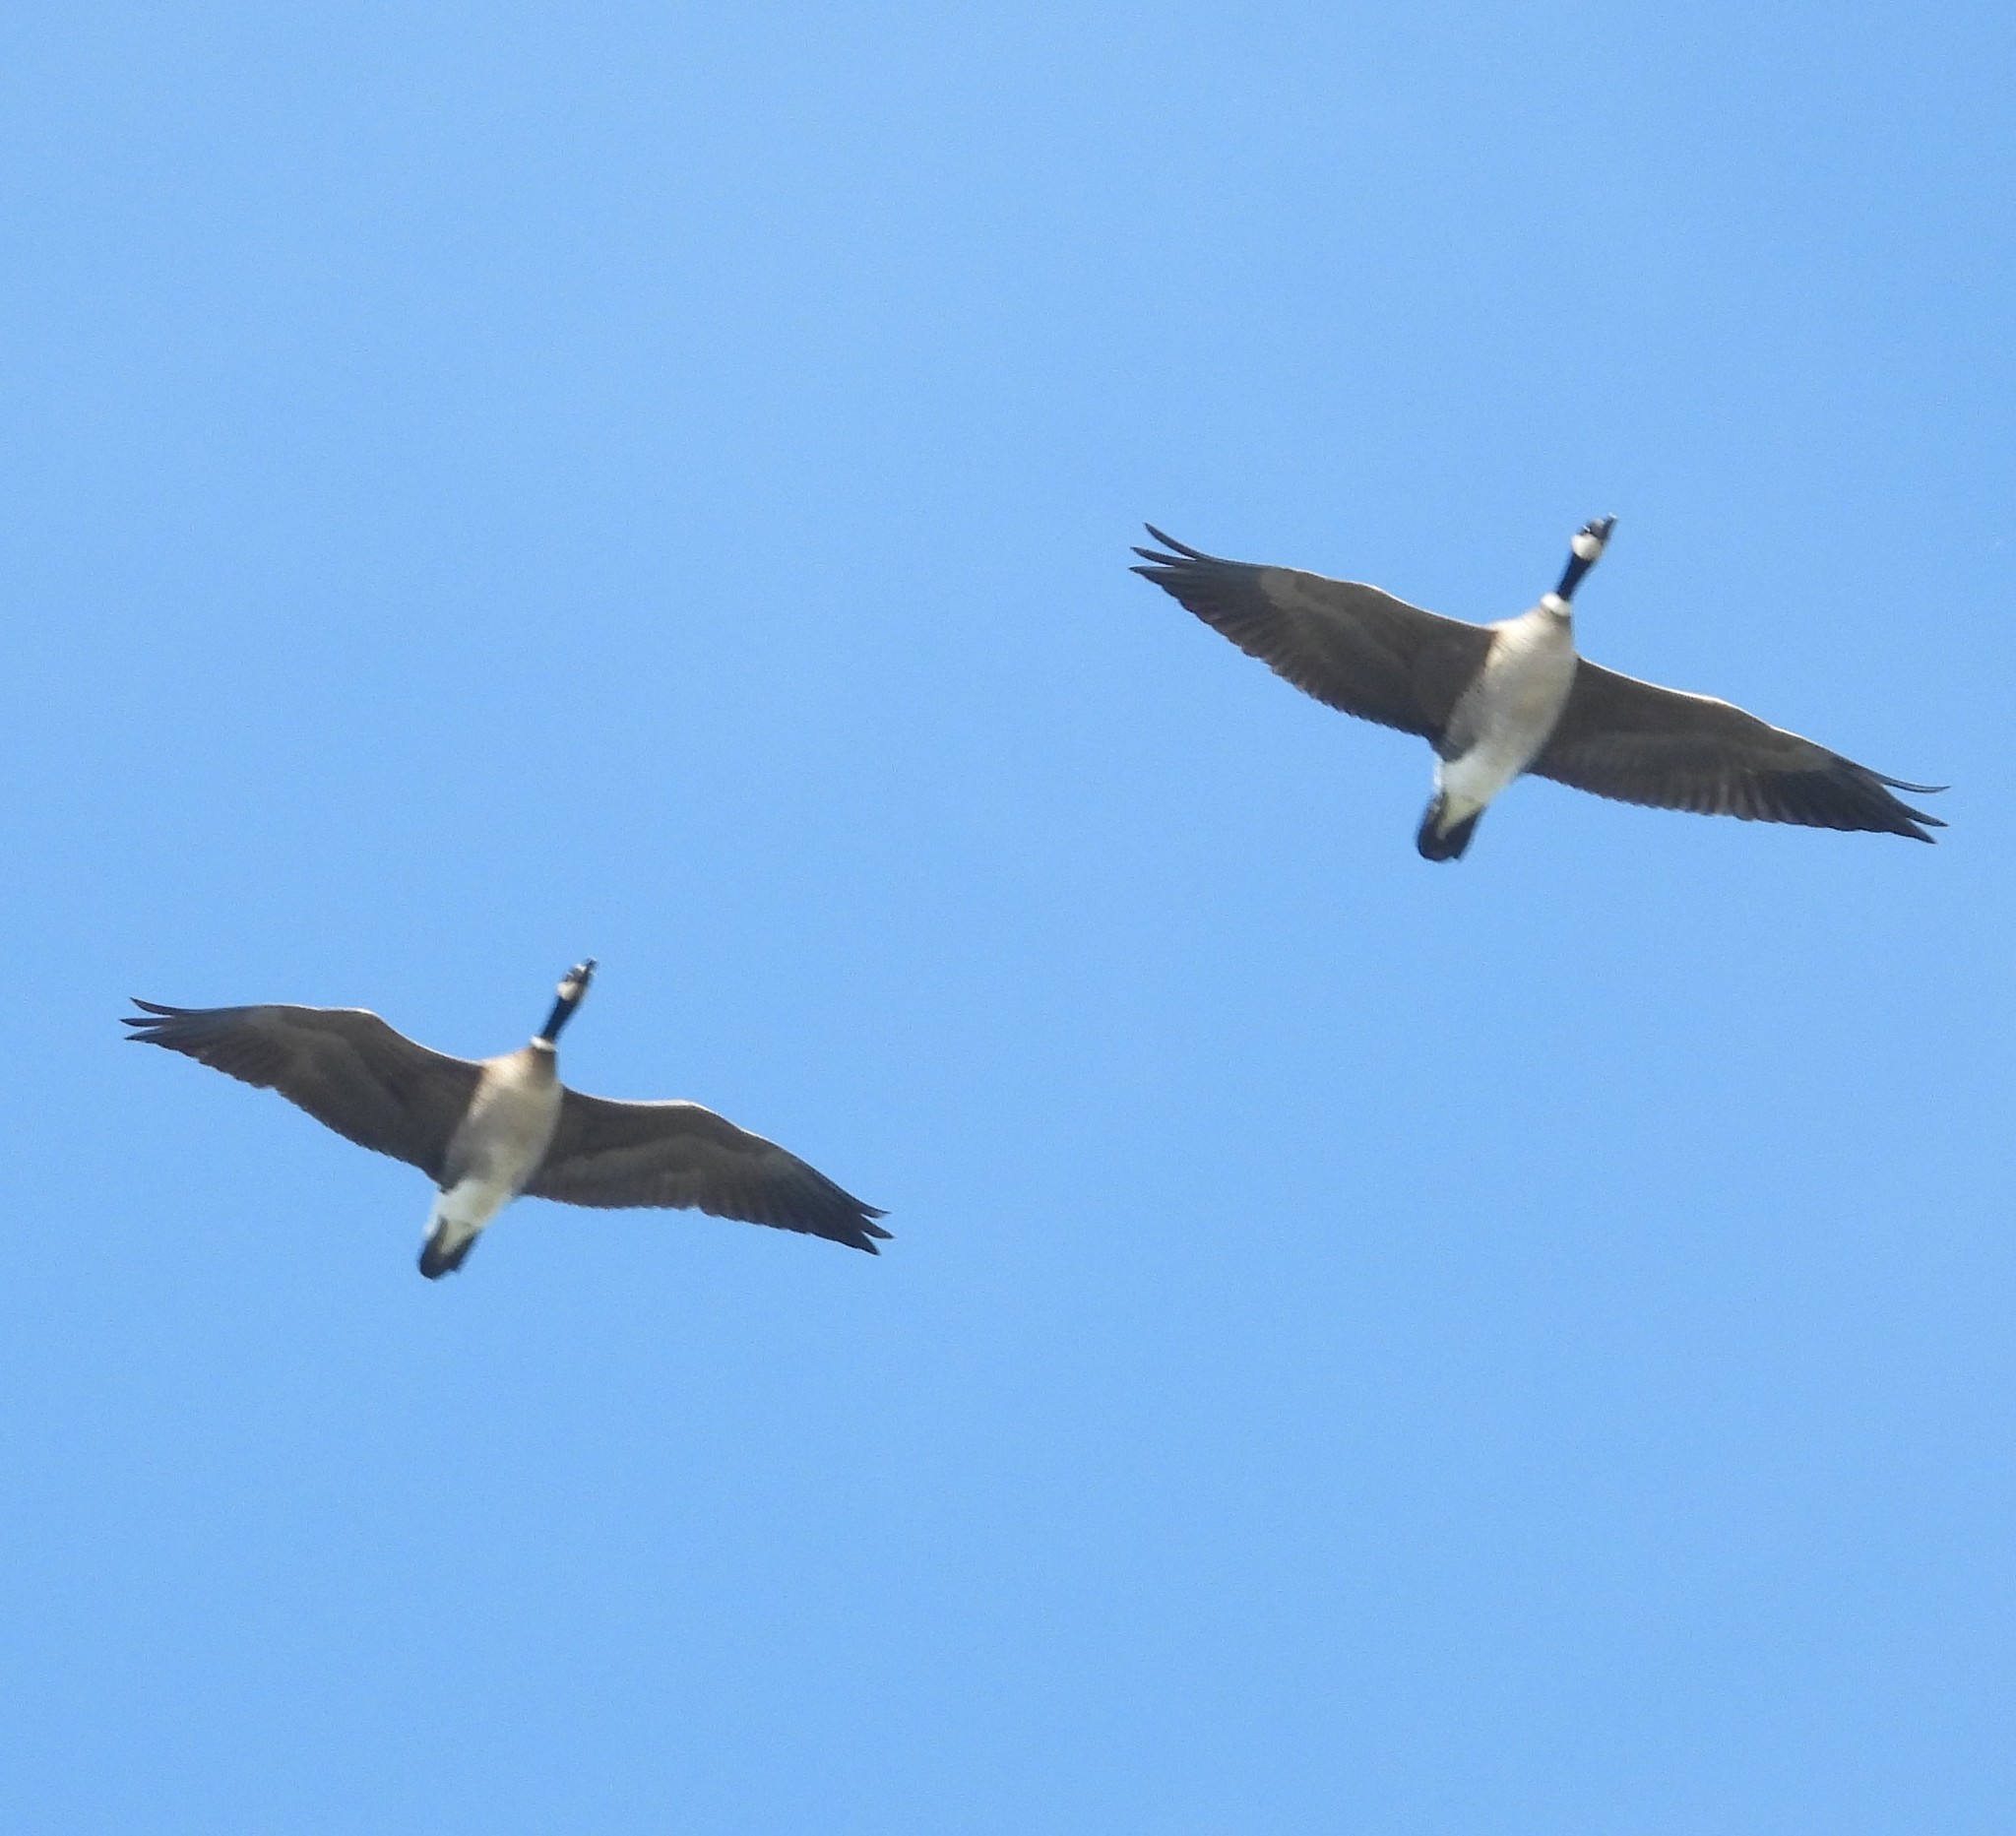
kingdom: Animalia
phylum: Chordata
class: Aves
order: Anseriformes
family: Anatidae
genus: Branta
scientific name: Branta hutchinsii
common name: Cackling goose
